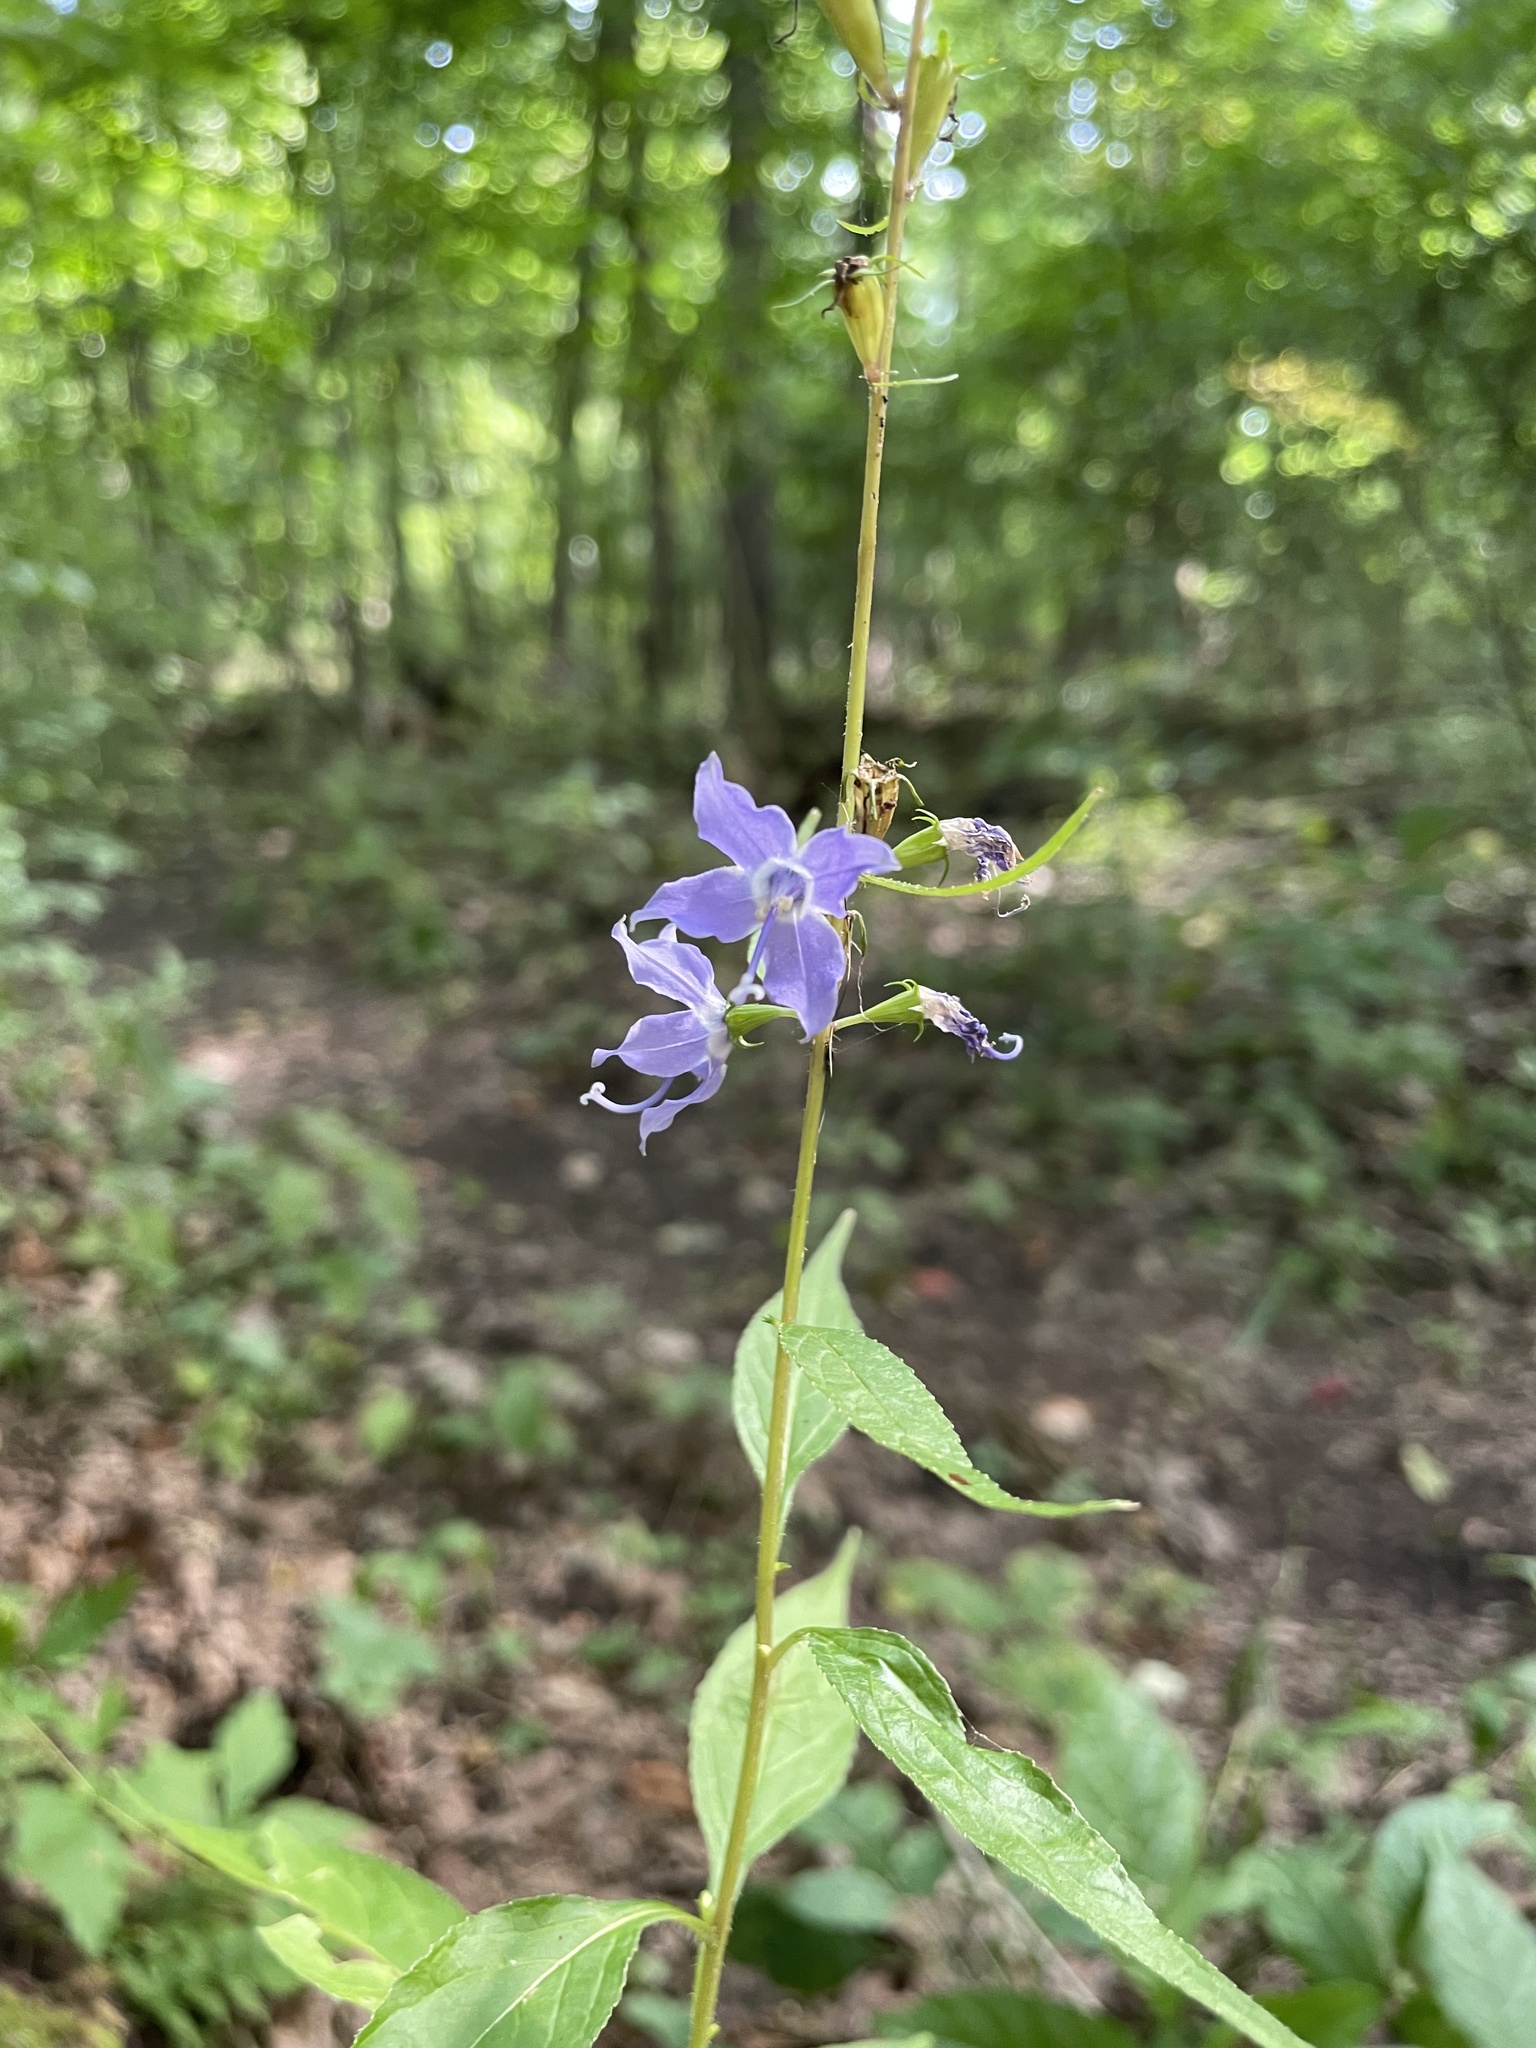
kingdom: Plantae
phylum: Tracheophyta
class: Magnoliopsida
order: Asterales
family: Campanulaceae
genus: Campanulastrum
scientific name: Campanulastrum americanum
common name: American bellflower
